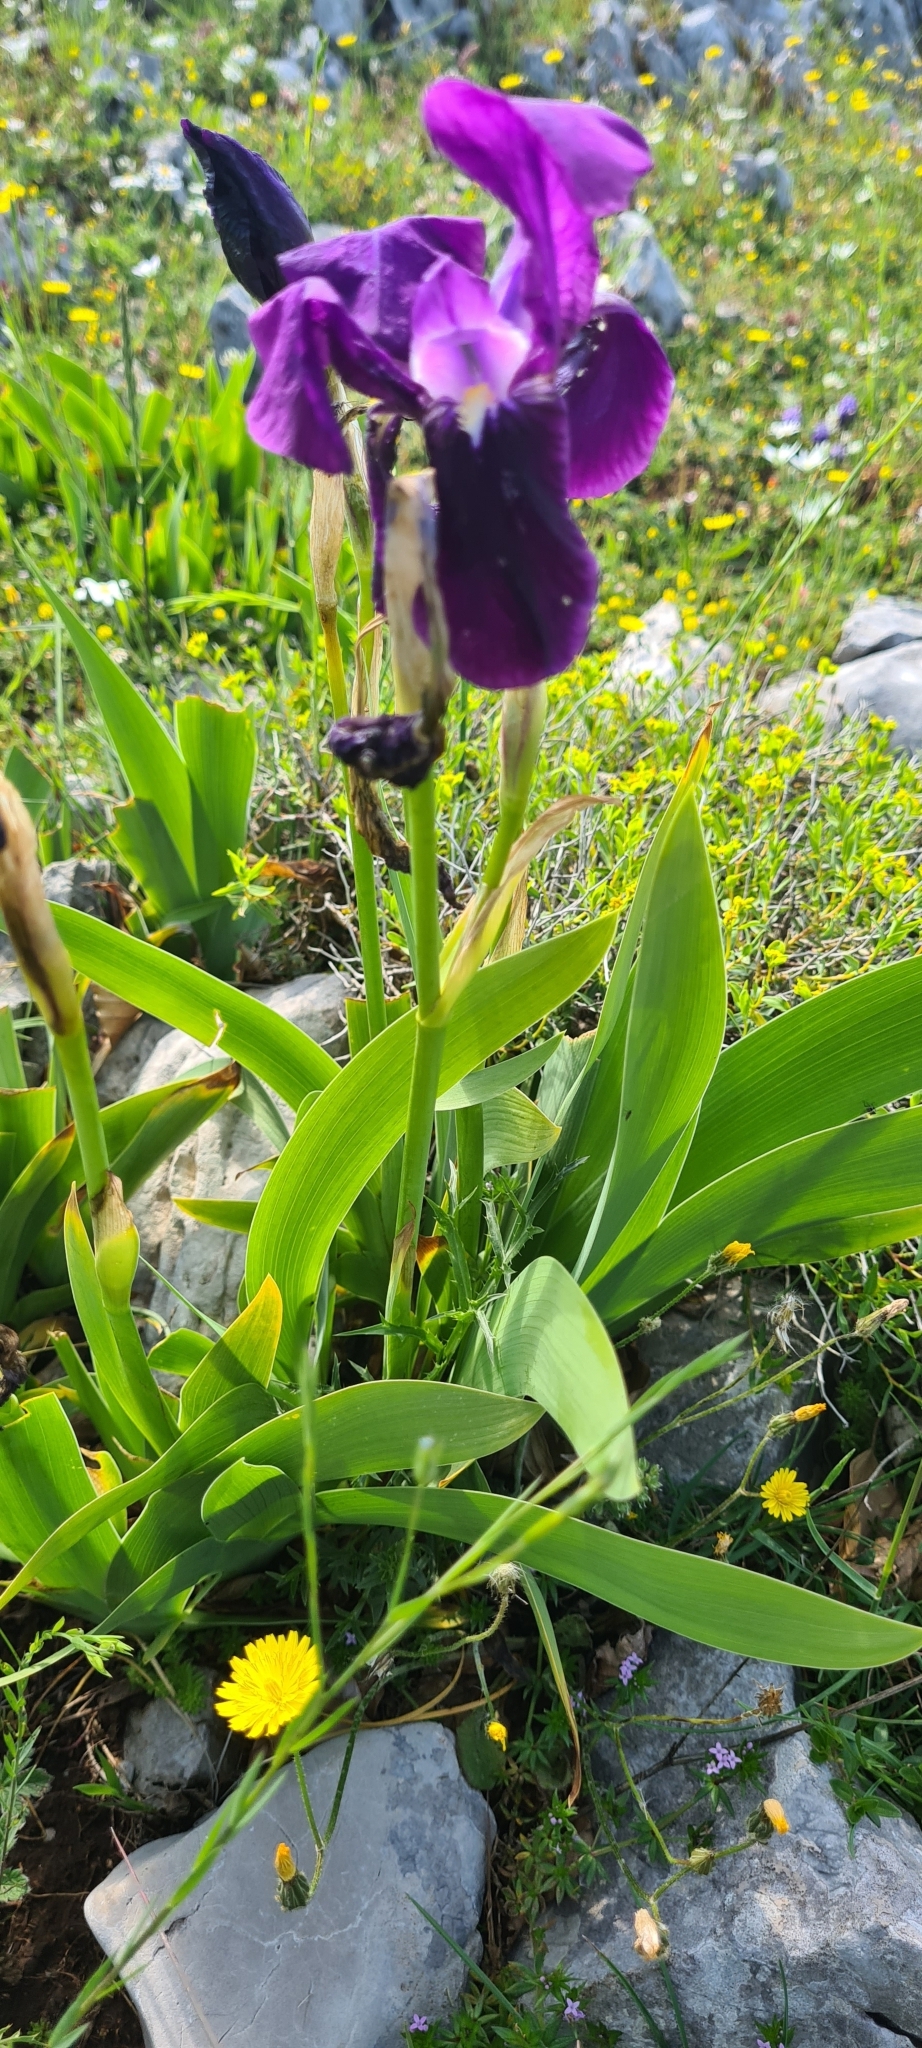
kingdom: Plantae
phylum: Tracheophyta
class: Liliopsida
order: Asparagales
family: Iridaceae
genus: Iris
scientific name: Iris sabina
